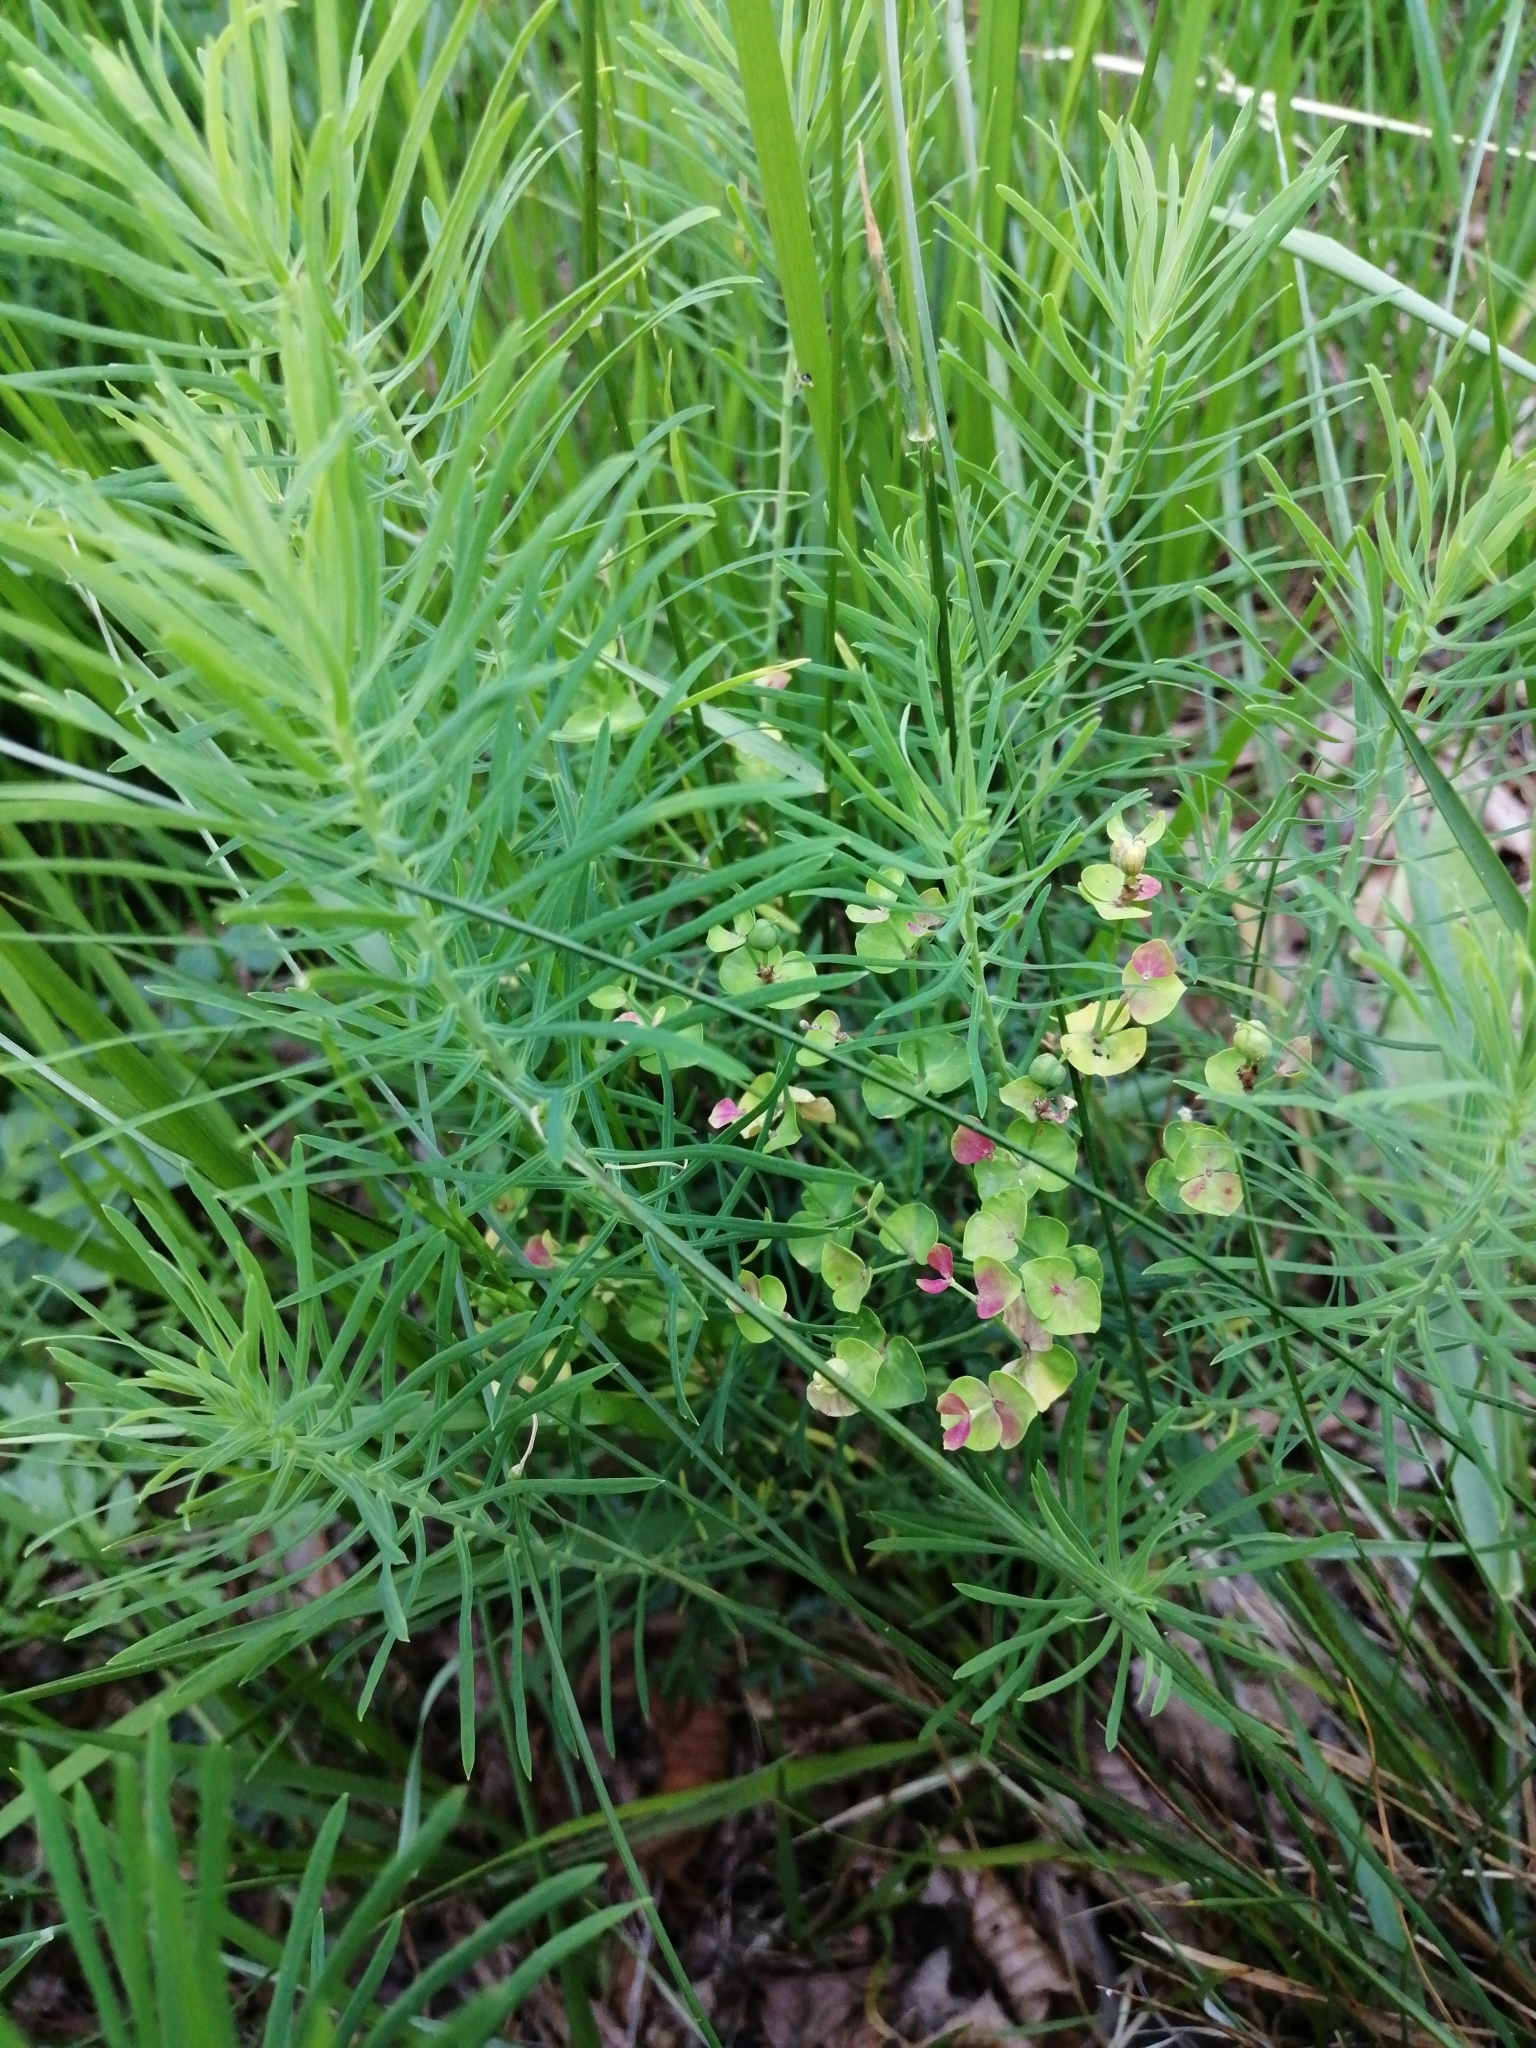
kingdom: Plantae
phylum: Tracheophyta
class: Magnoliopsida
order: Malpighiales
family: Euphorbiaceae
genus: Euphorbia
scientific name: Euphorbia cyparissias
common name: Cypress spurge
